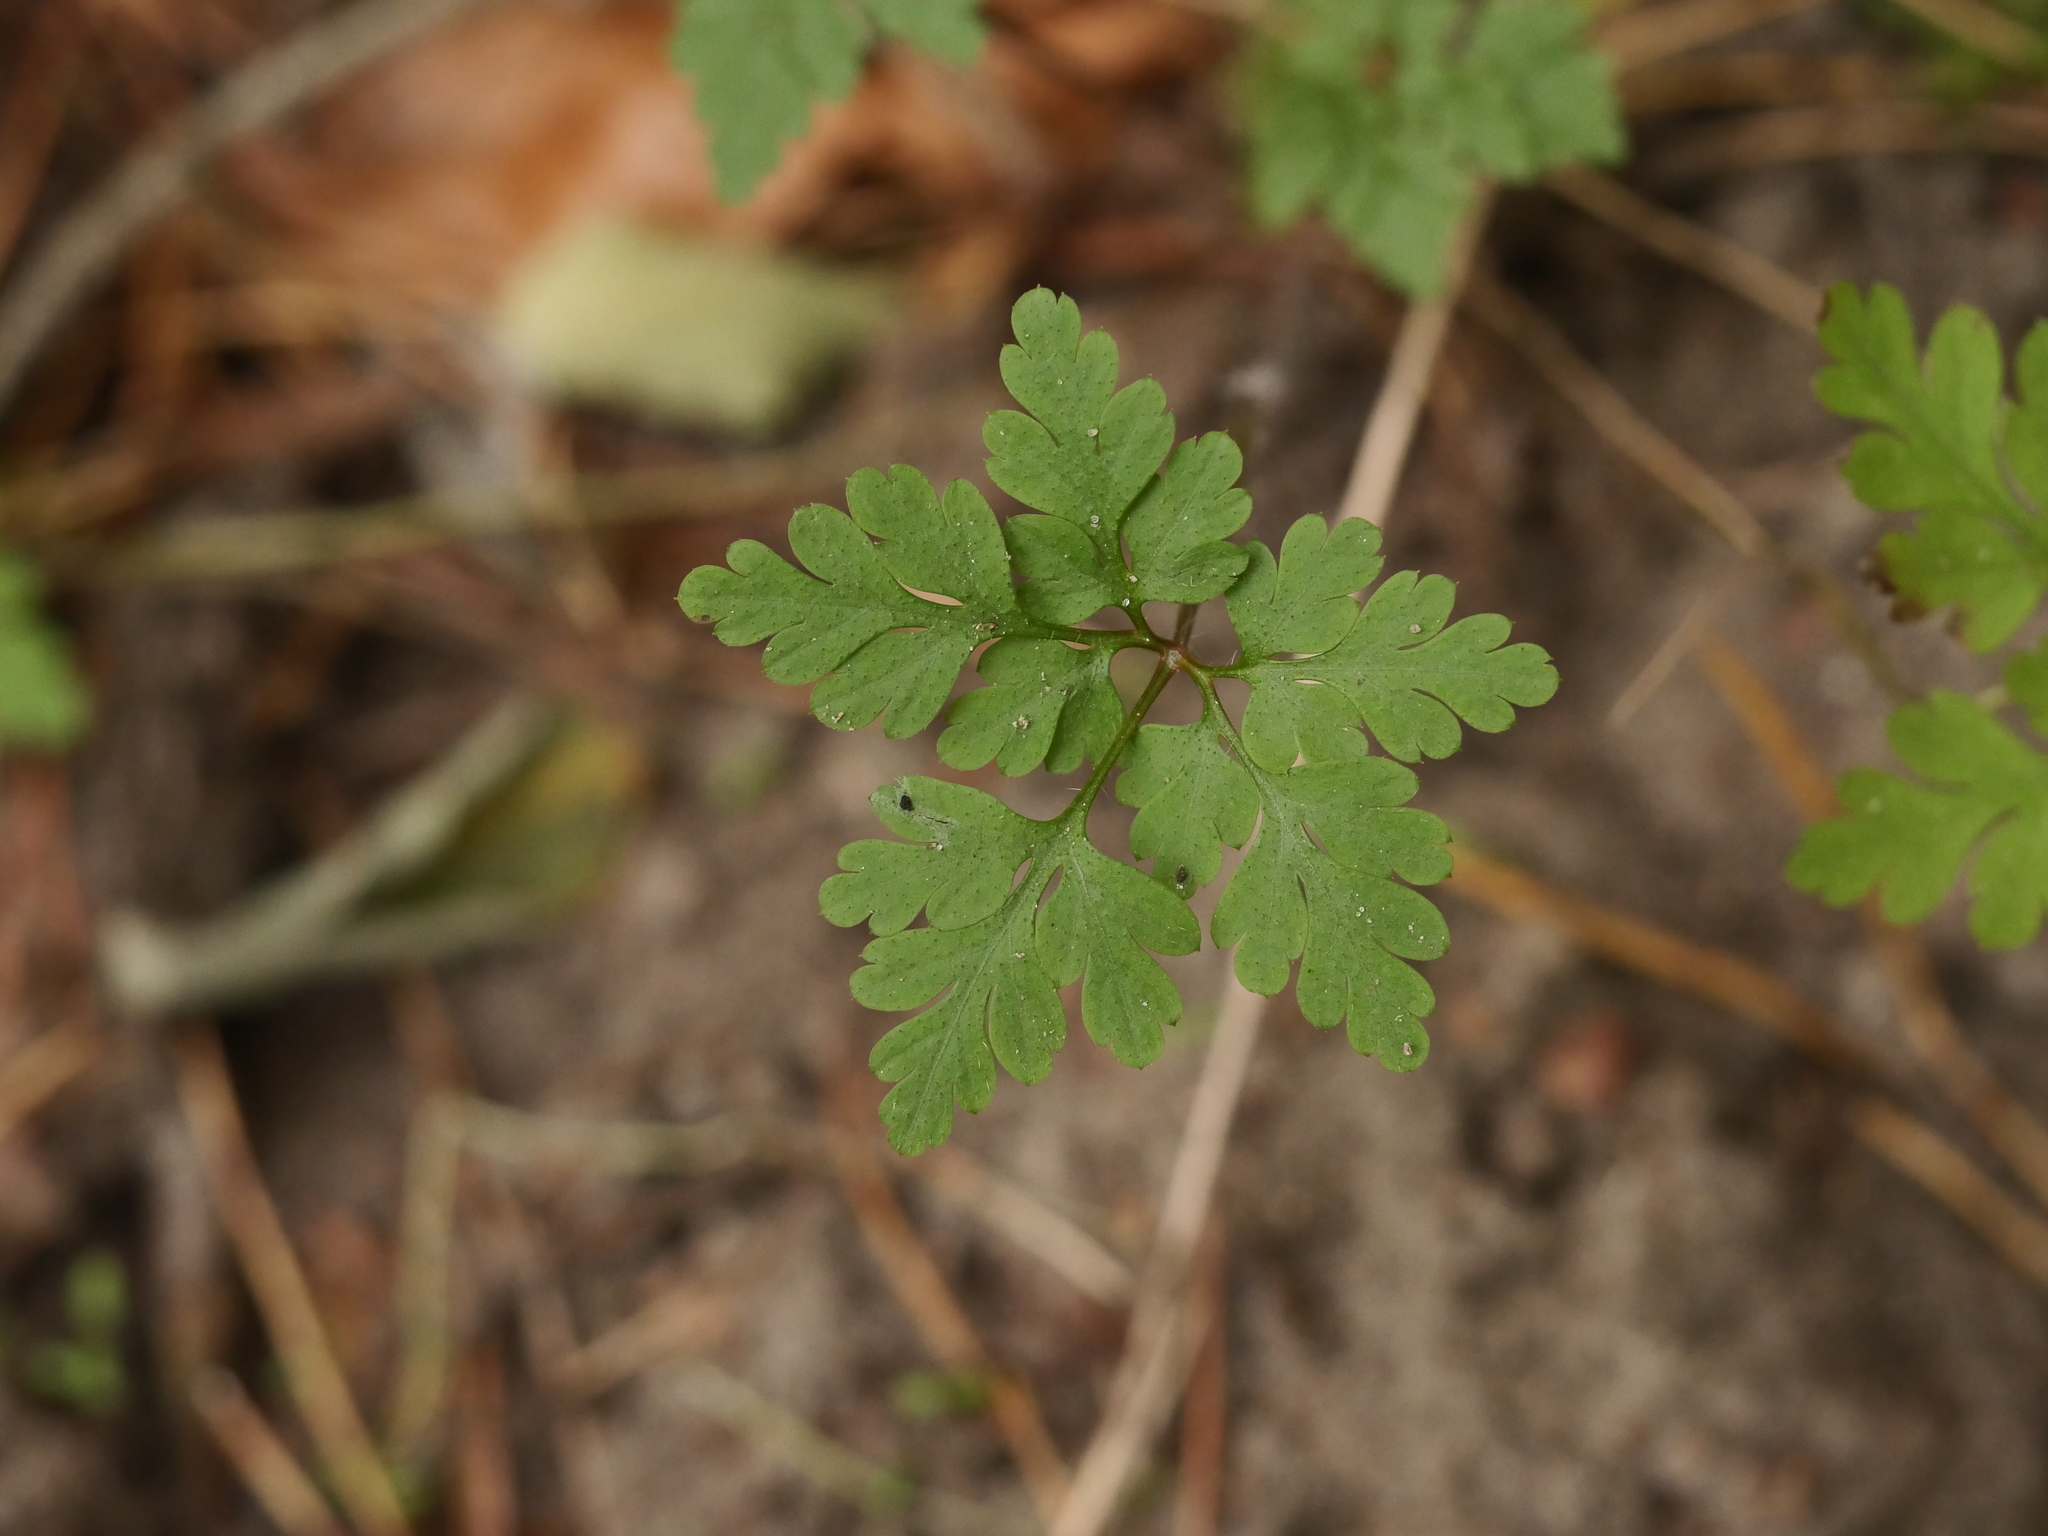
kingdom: Plantae
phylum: Tracheophyta
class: Magnoliopsida
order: Geraniales
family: Geraniaceae
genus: Geranium
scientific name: Geranium robertianum
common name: Herb-robert
